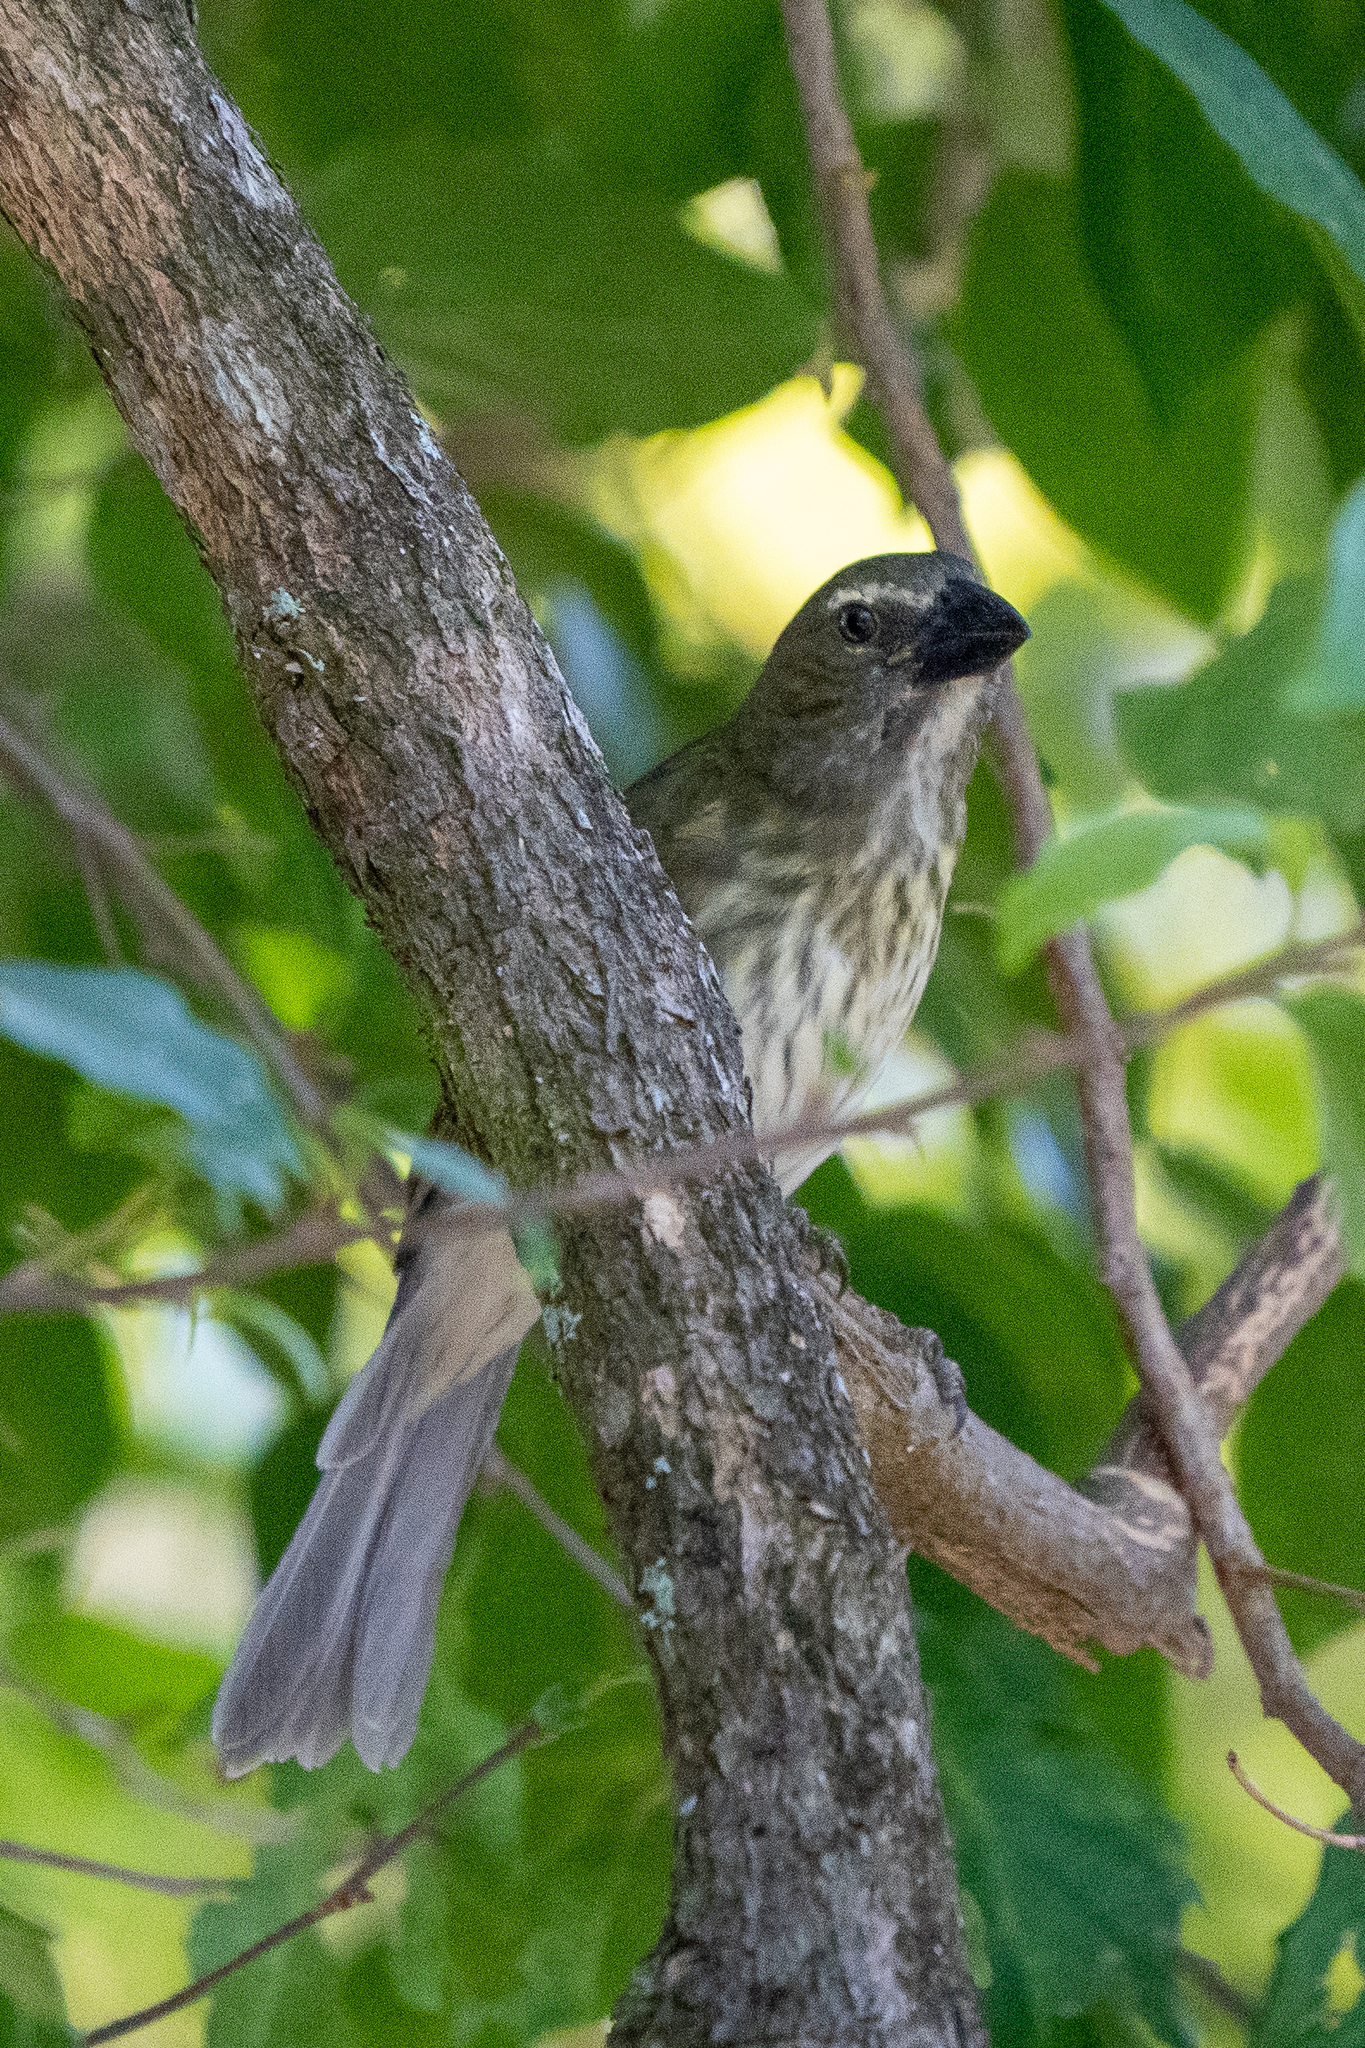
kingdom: Animalia
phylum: Chordata
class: Aves
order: Passeriformes
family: Thraupidae
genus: Saltator
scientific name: Saltator striatipectus
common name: Streaked saltator
